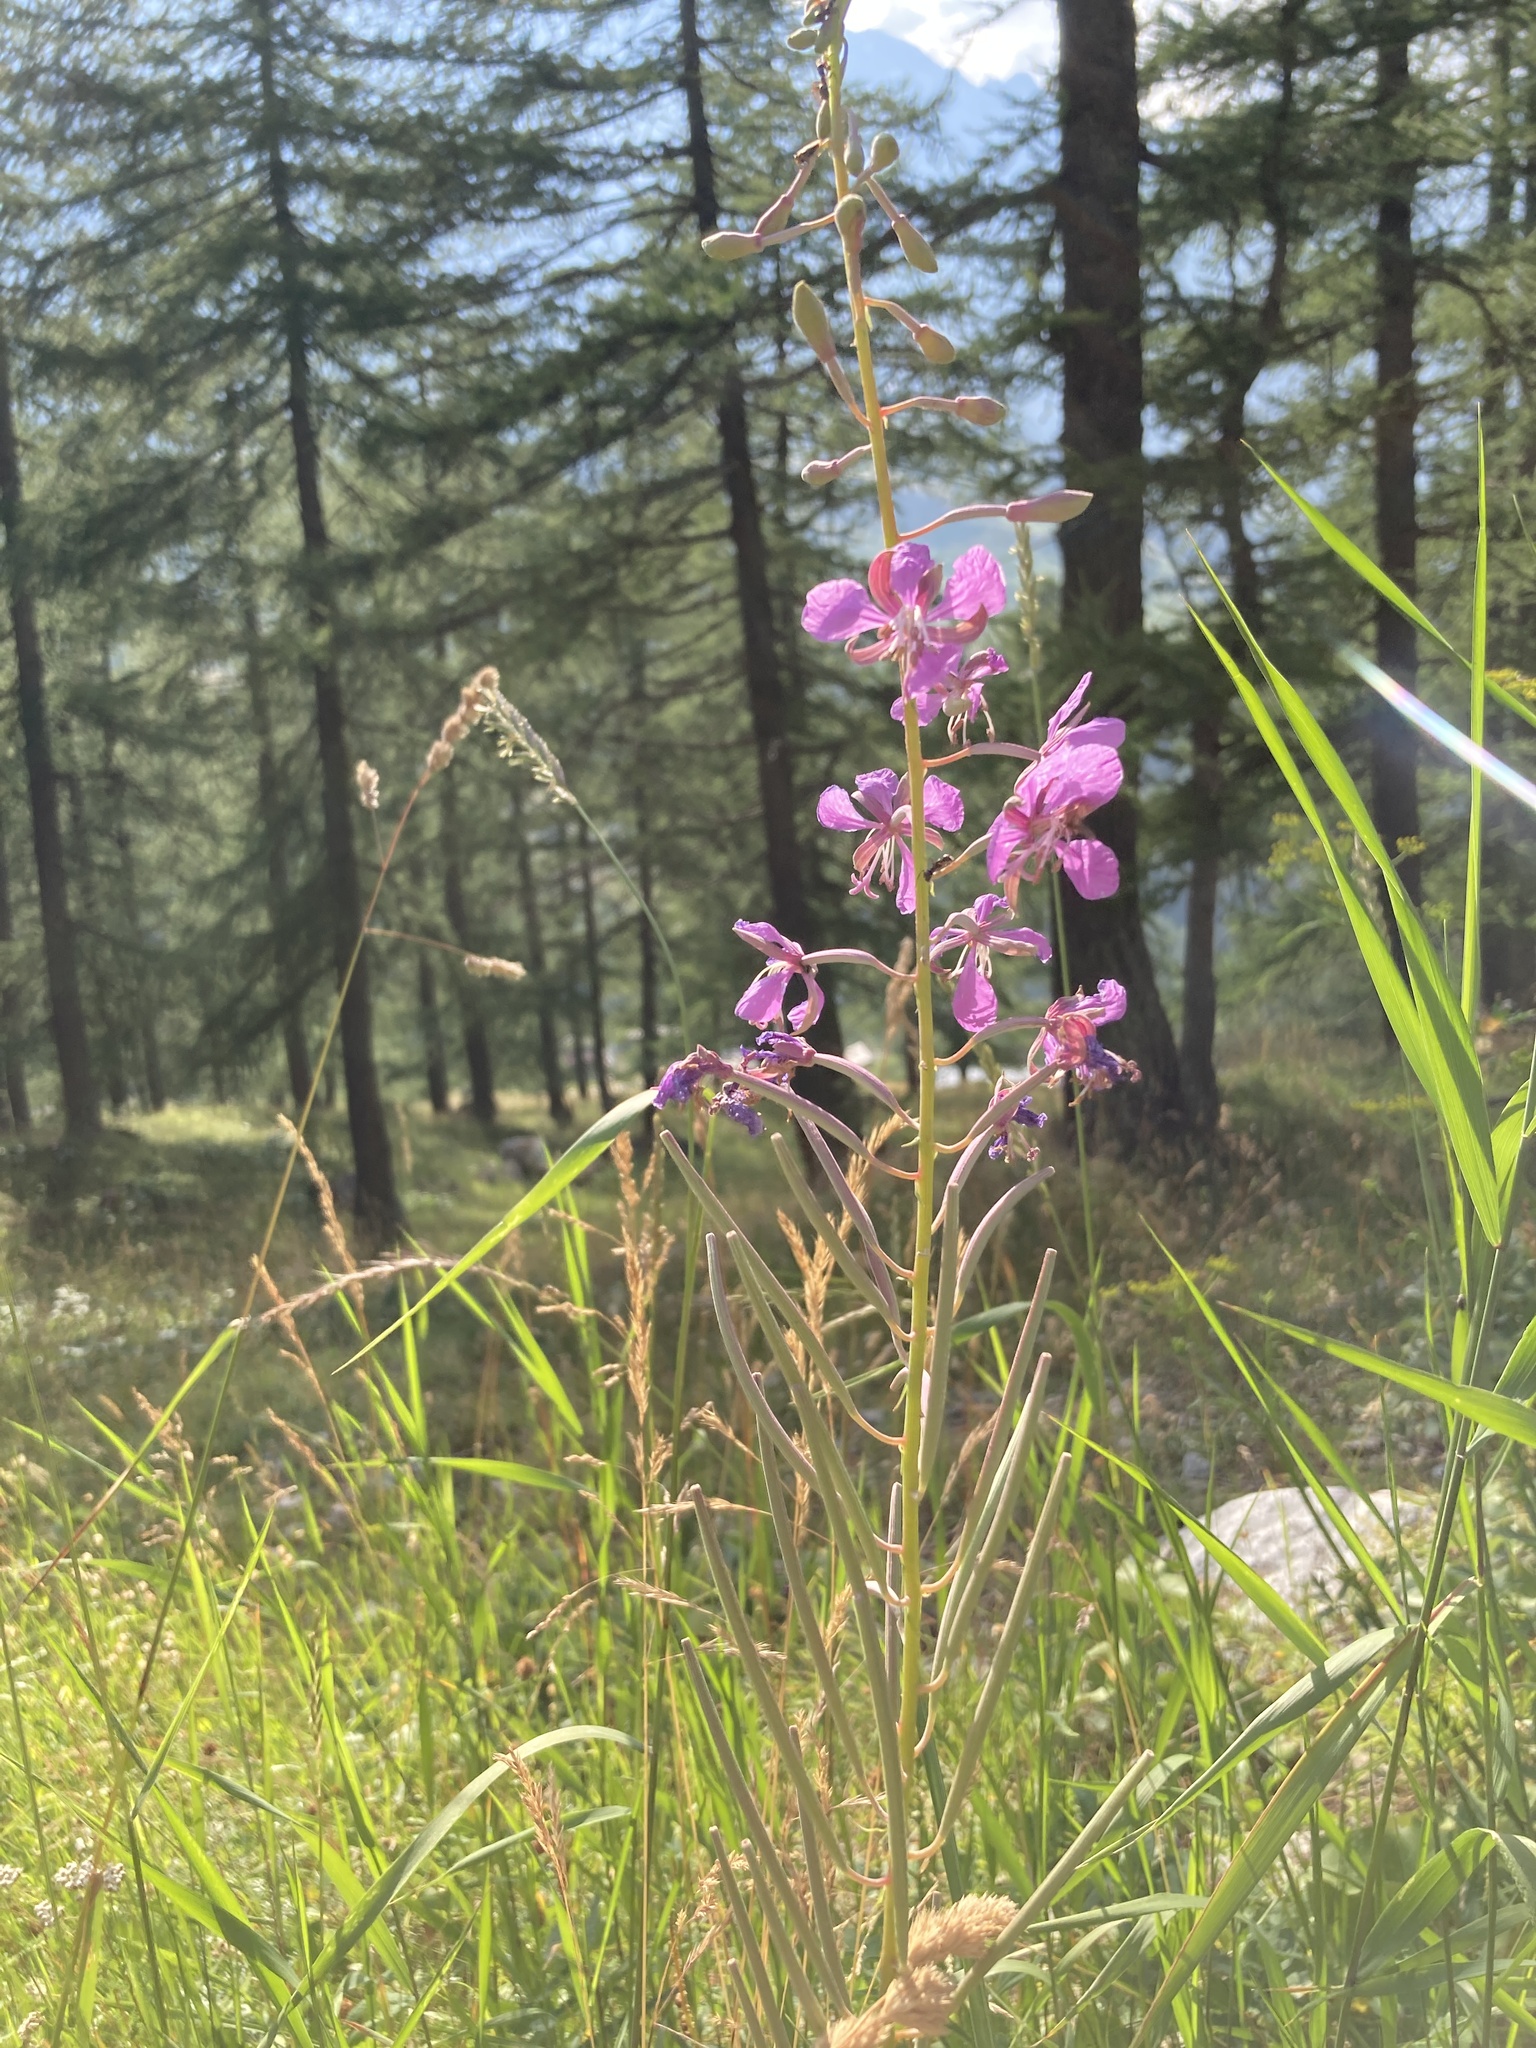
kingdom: Plantae
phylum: Tracheophyta
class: Magnoliopsida
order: Myrtales
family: Onagraceae
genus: Chamaenerion
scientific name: Chamaenerion angustifolium
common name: Fireweed
